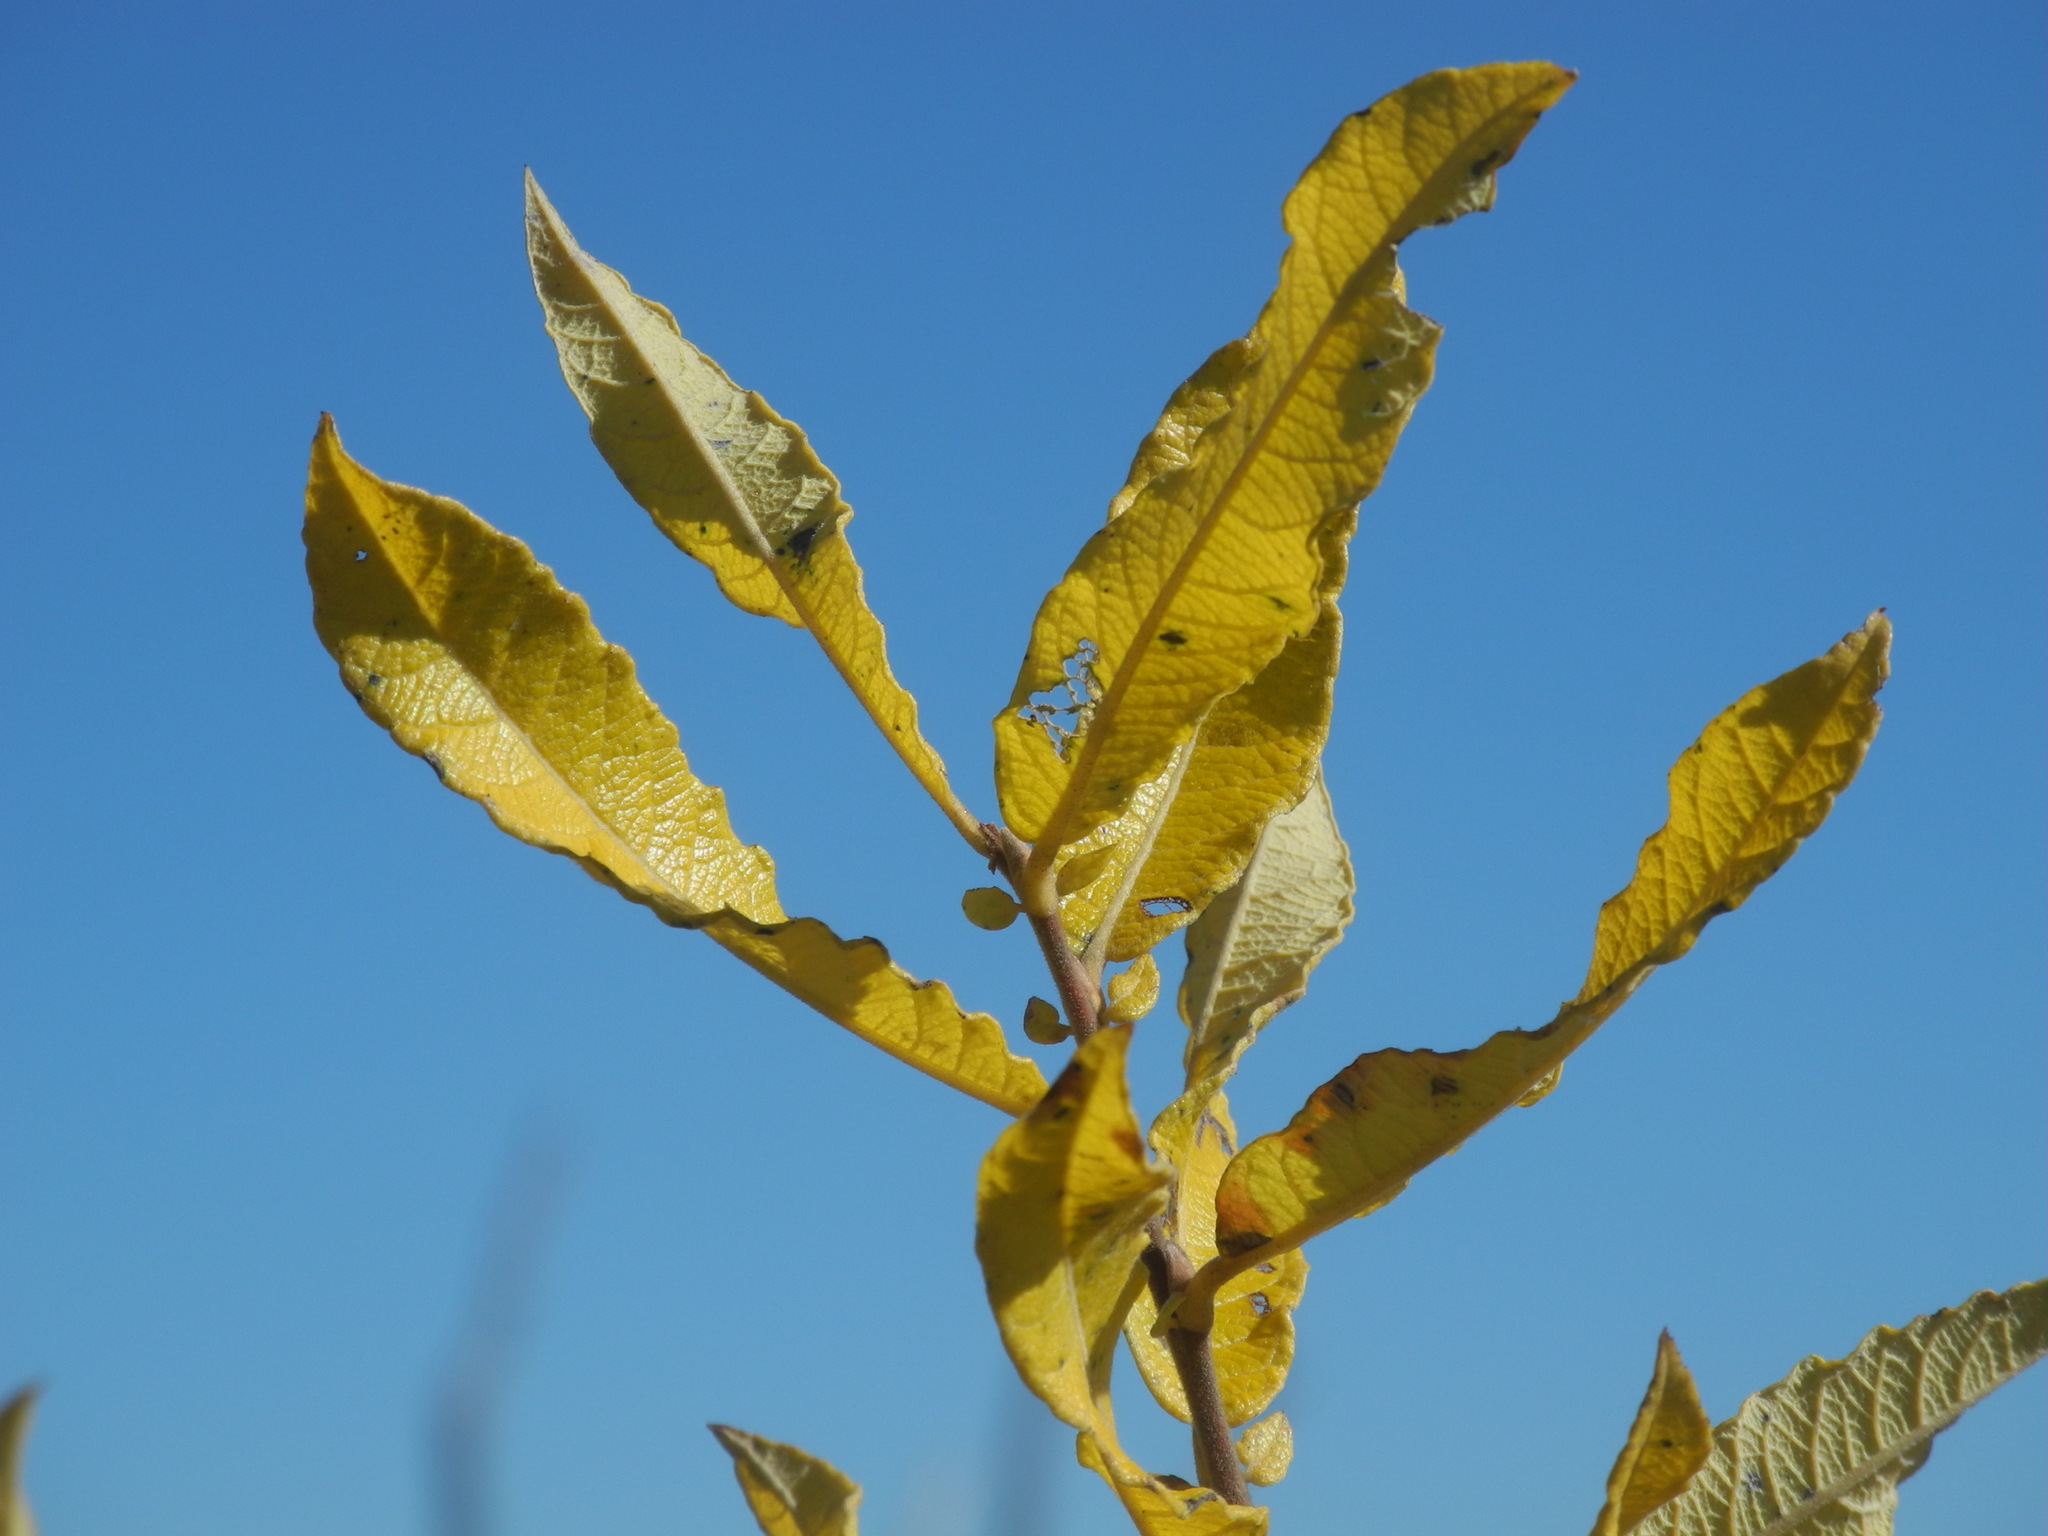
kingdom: Plantae
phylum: Tracheophyta
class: Magnoliopsida
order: Malpighiales
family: Salicaceae
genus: Salix
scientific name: Salix humilis
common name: Prairie willow
